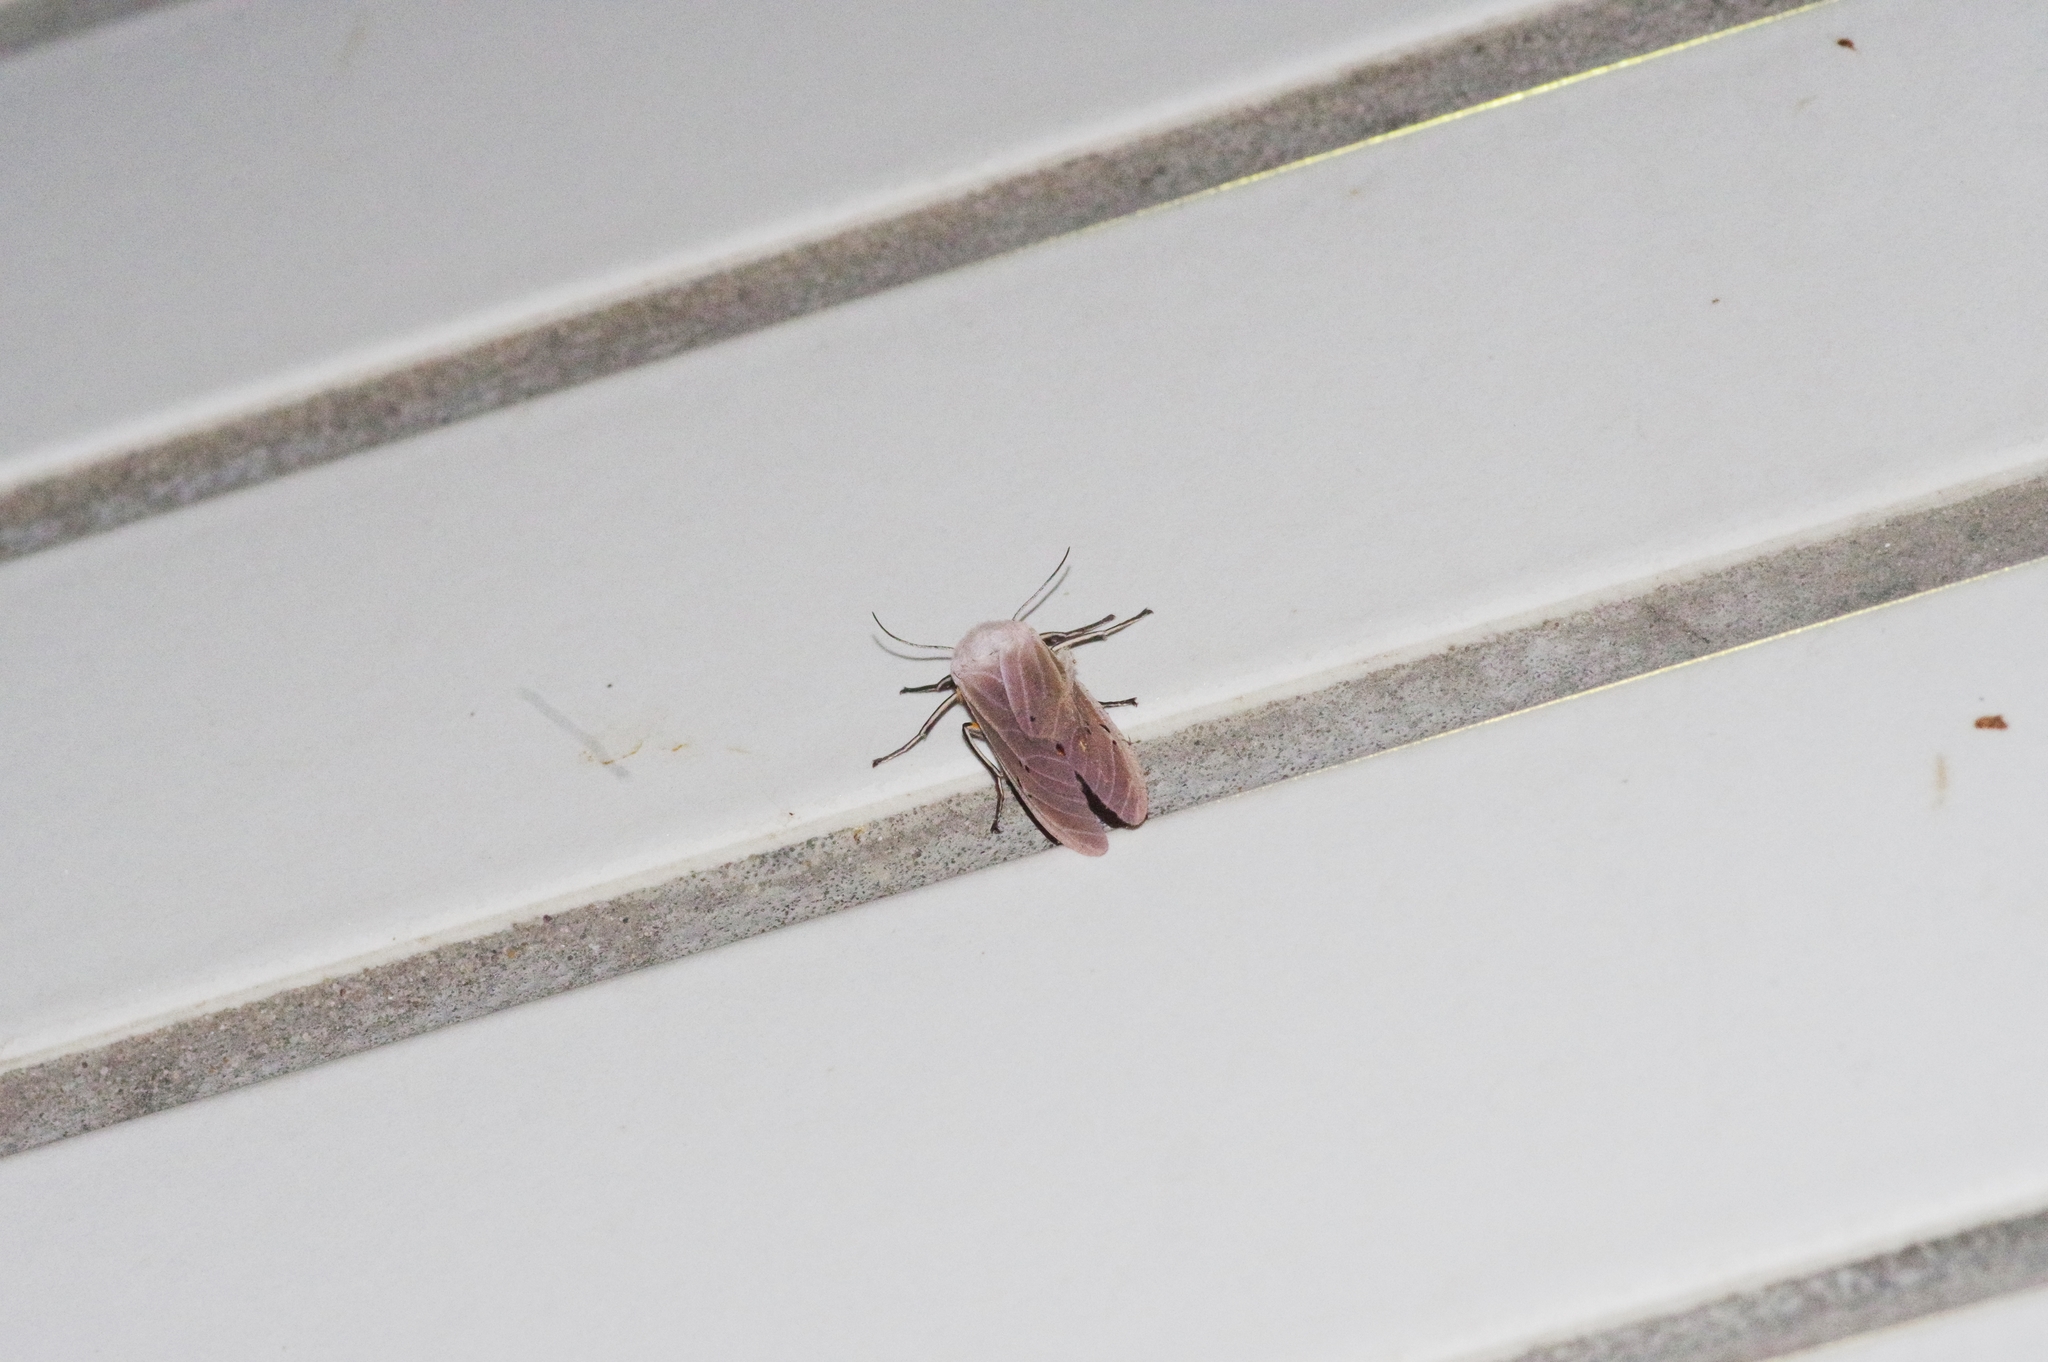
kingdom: Animalia
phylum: Arthropoda
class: Insecta
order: Lepidoptera
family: Erebidae
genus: Creatonotos
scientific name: Creatonotos transiens
